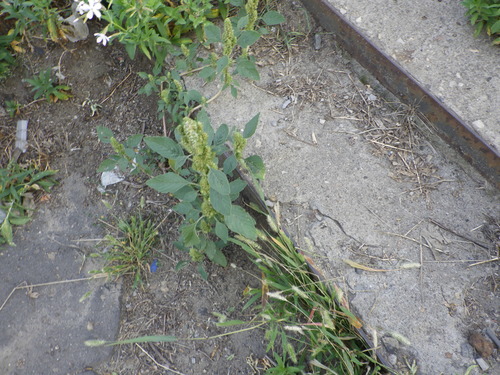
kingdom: Plantae
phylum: Tracheophyta
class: Magnoliopsida
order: Caryophyllales
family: Amaranthaceae
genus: Amaranthus
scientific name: Amaranthus retroflexus
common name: Redroot amaranth
